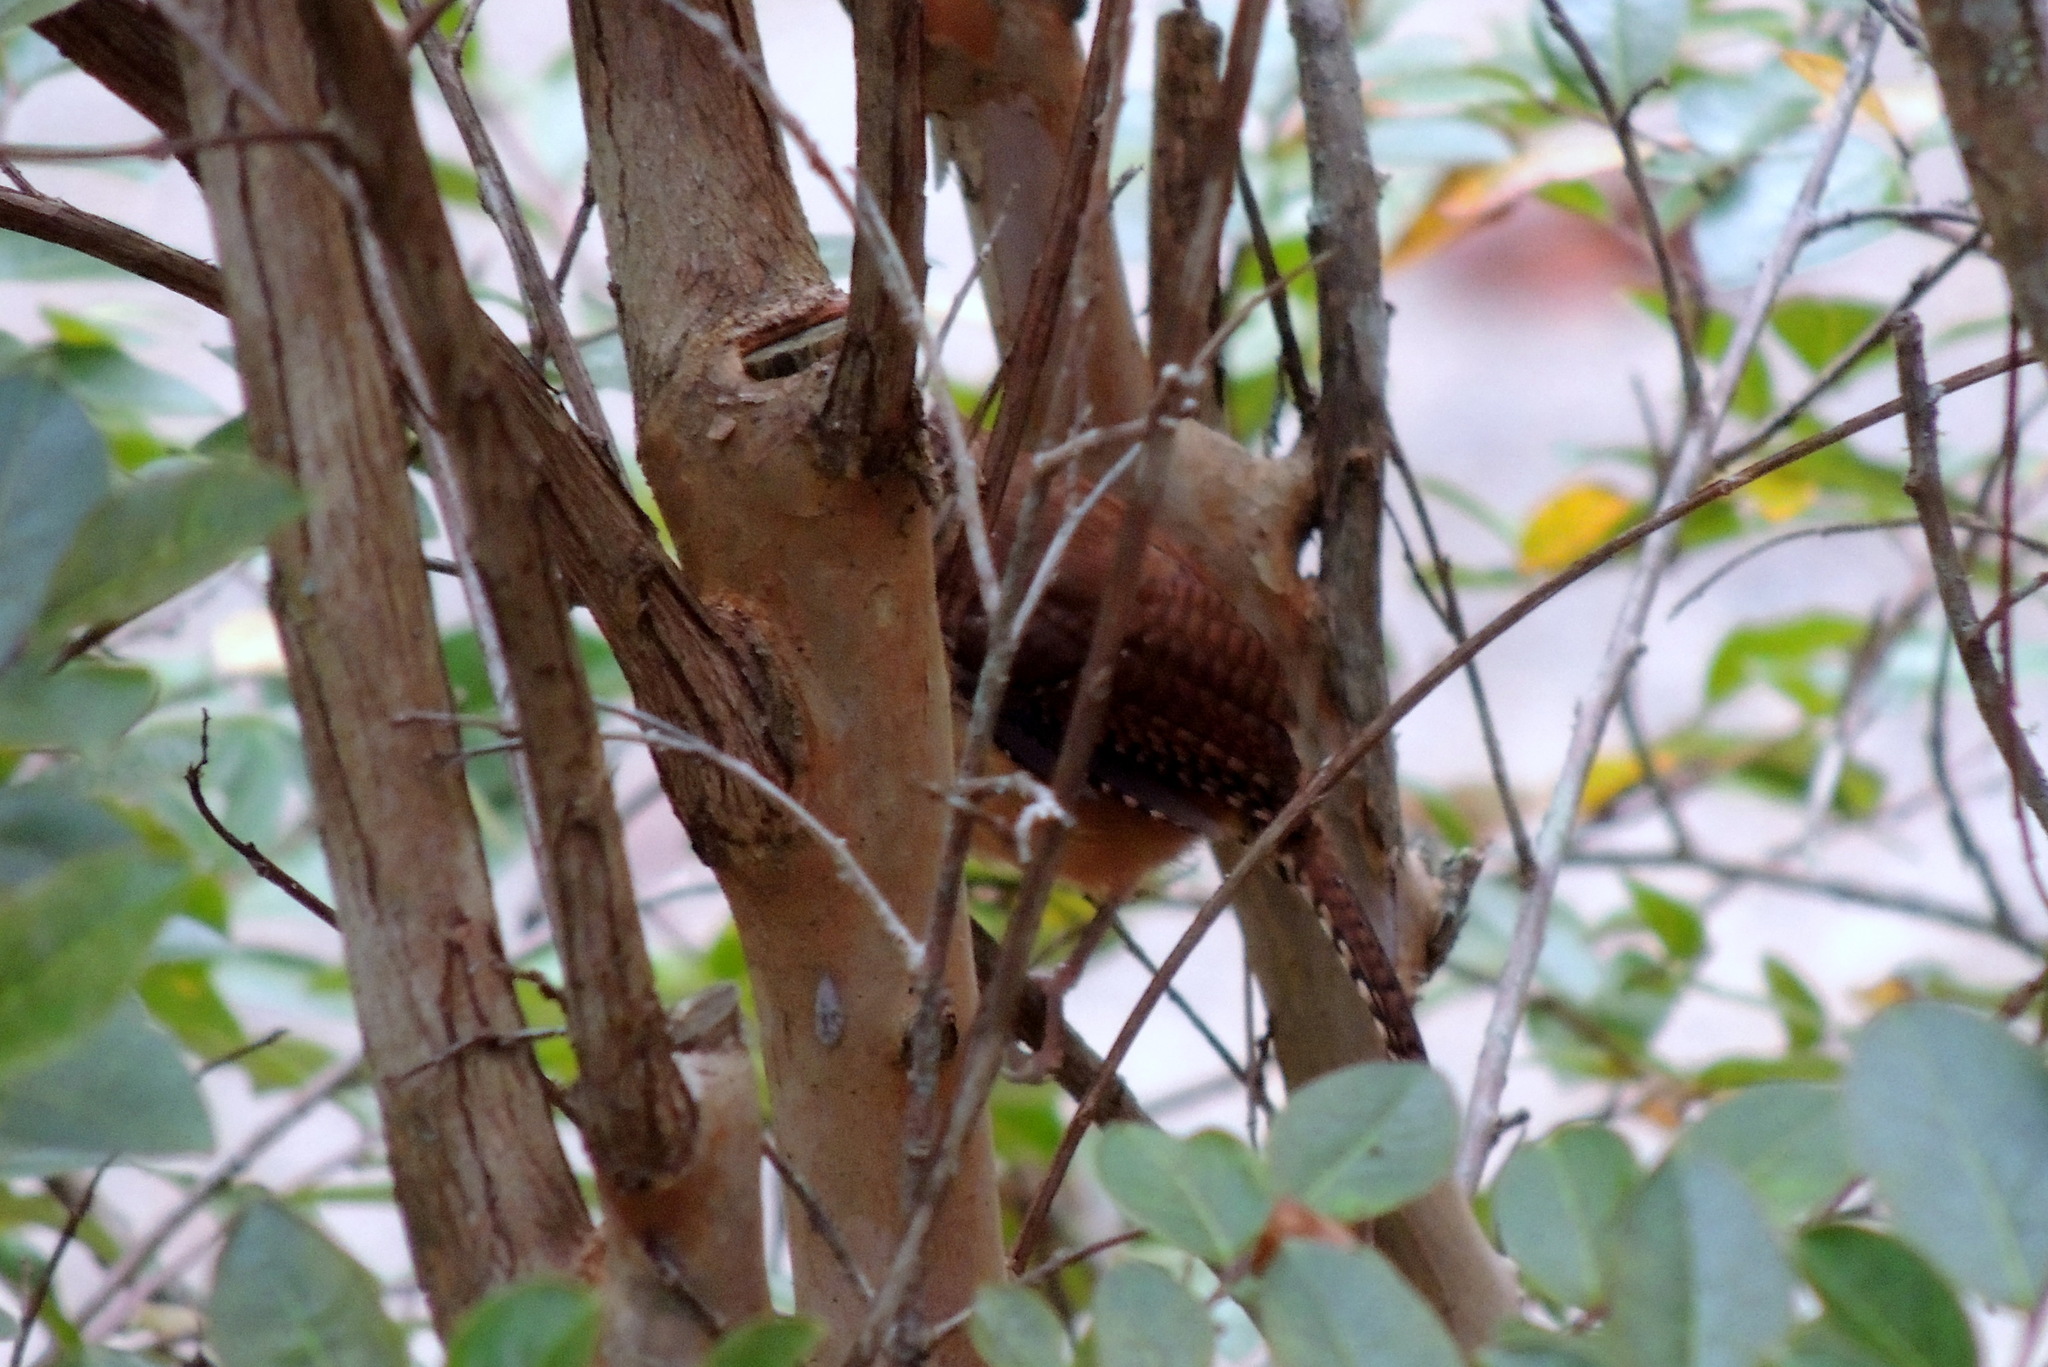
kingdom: Animalia
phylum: Chordata
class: Aves
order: Passeriformes
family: Troglodytidae
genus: Thryothorus
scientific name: Thryothorus ludovicianus
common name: Carolina wren
